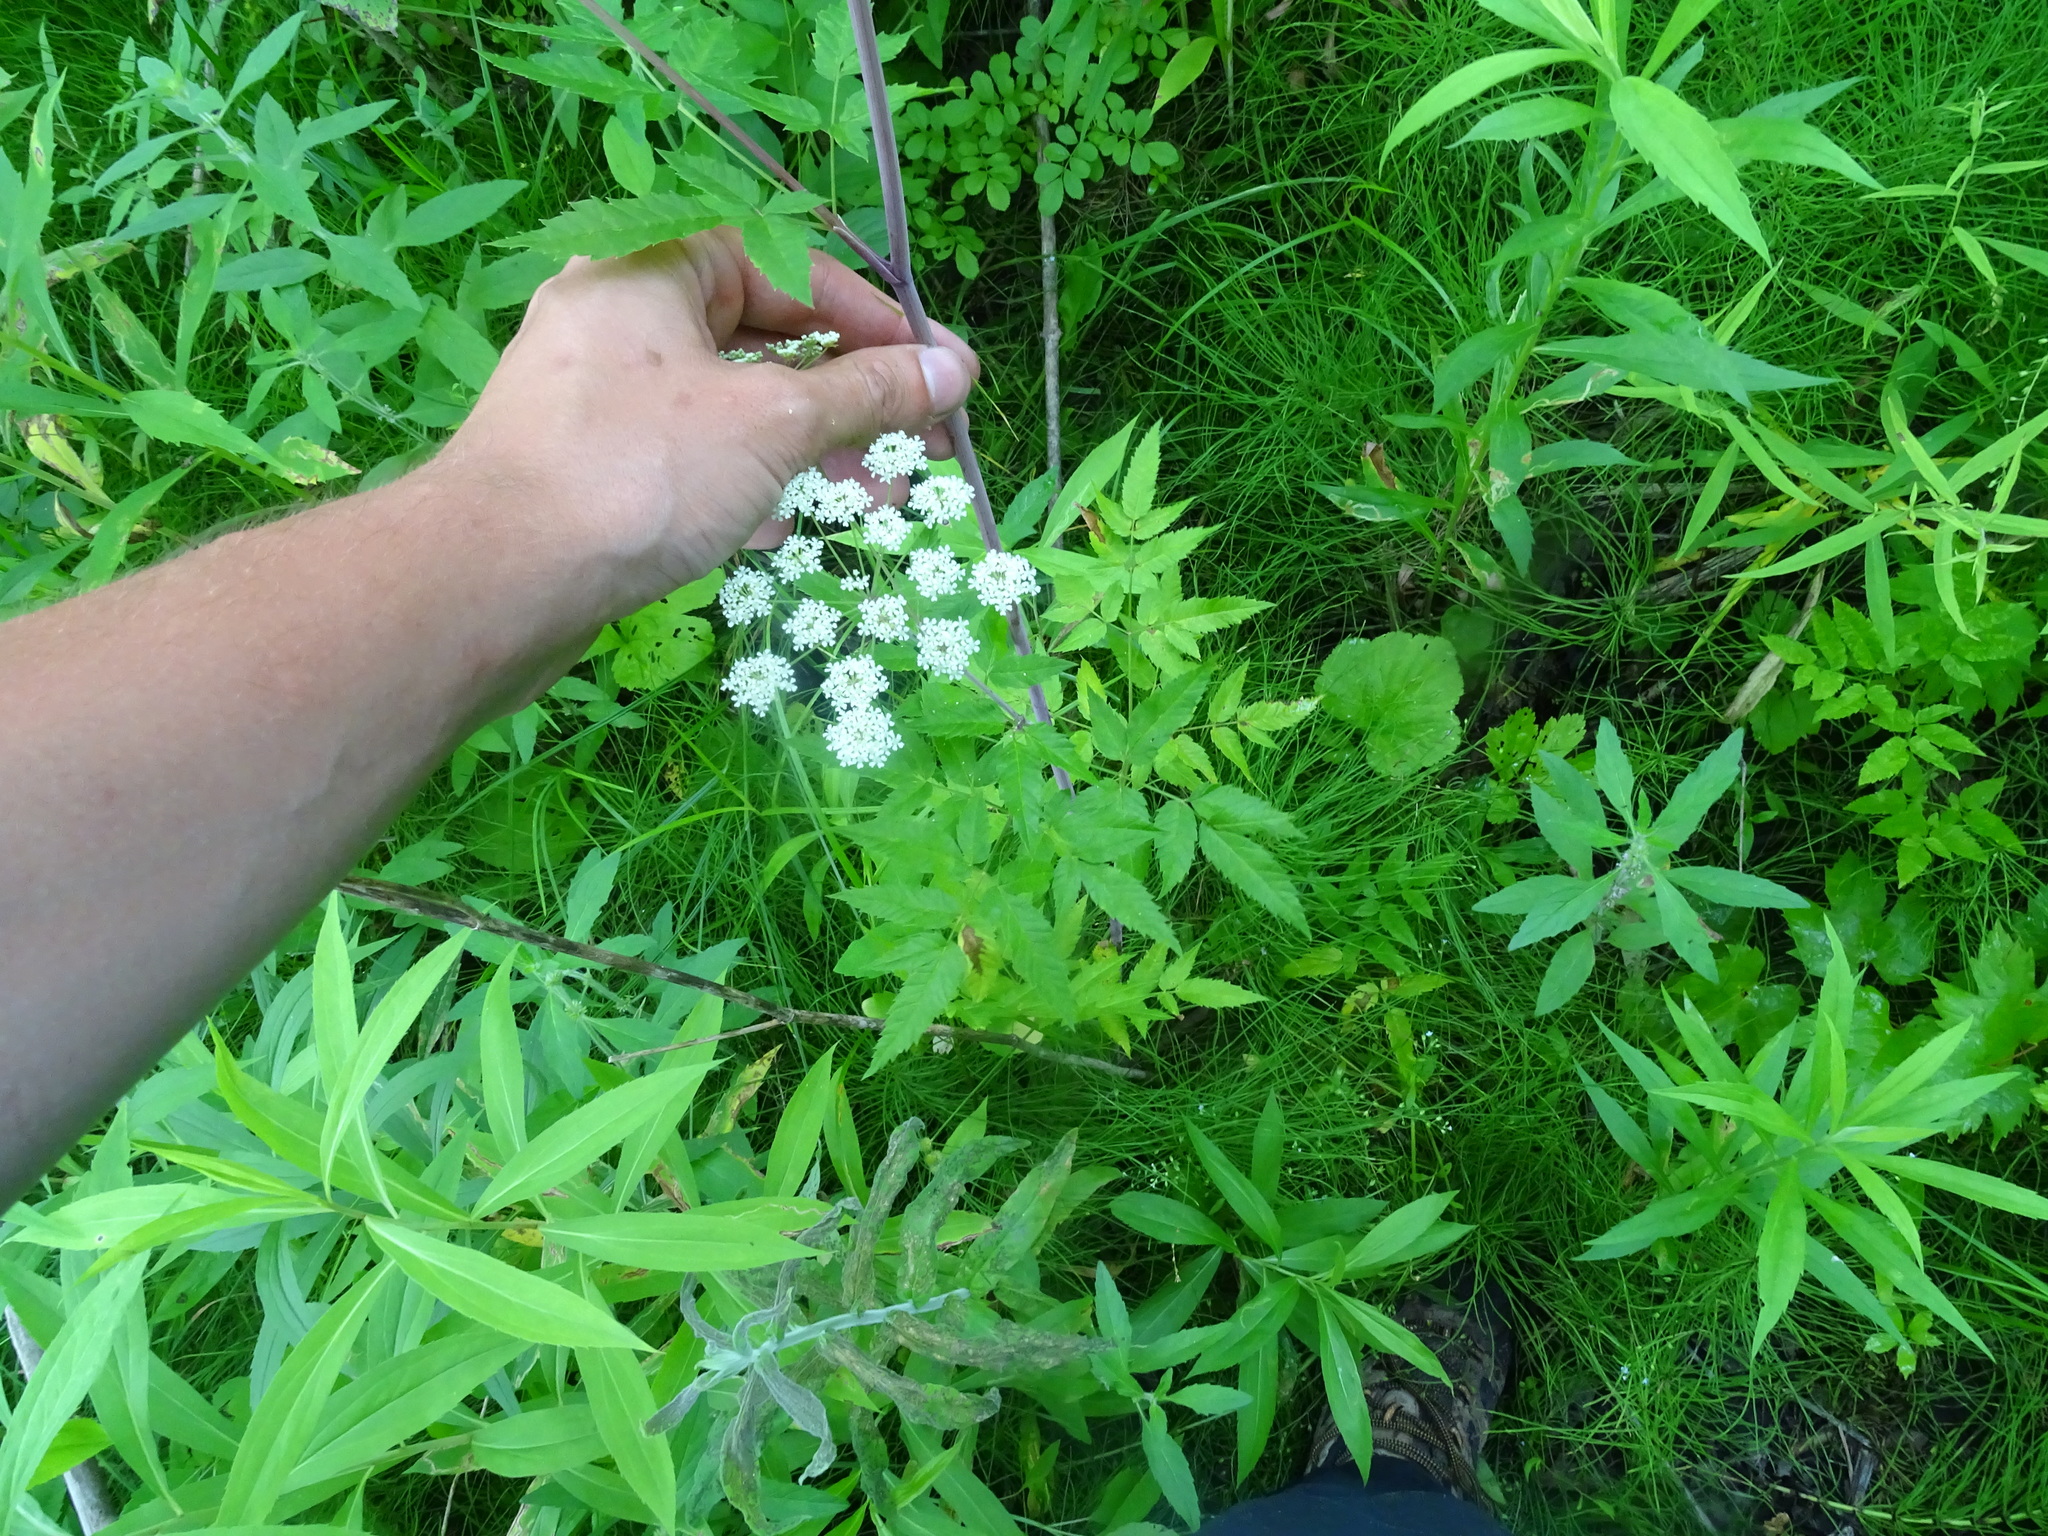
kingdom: Plantae
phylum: Tracheophyta
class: Magnoliopsida
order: Apiales
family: Apiaceae
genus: Cicuta
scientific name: Cicuta maculata
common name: Spotted cowbane
